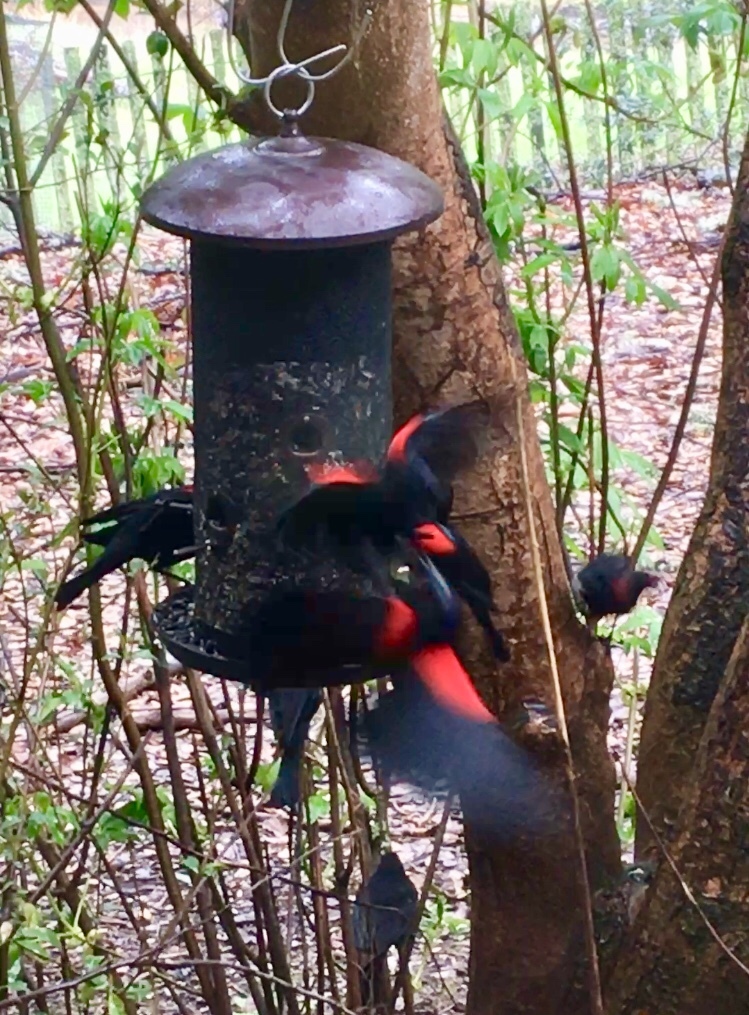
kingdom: Animalia
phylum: Chordata
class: Aves
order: Passeriformes
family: Icteridae
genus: Agelaius
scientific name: Agelaius phoeniceus
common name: Red-winged blackbird
